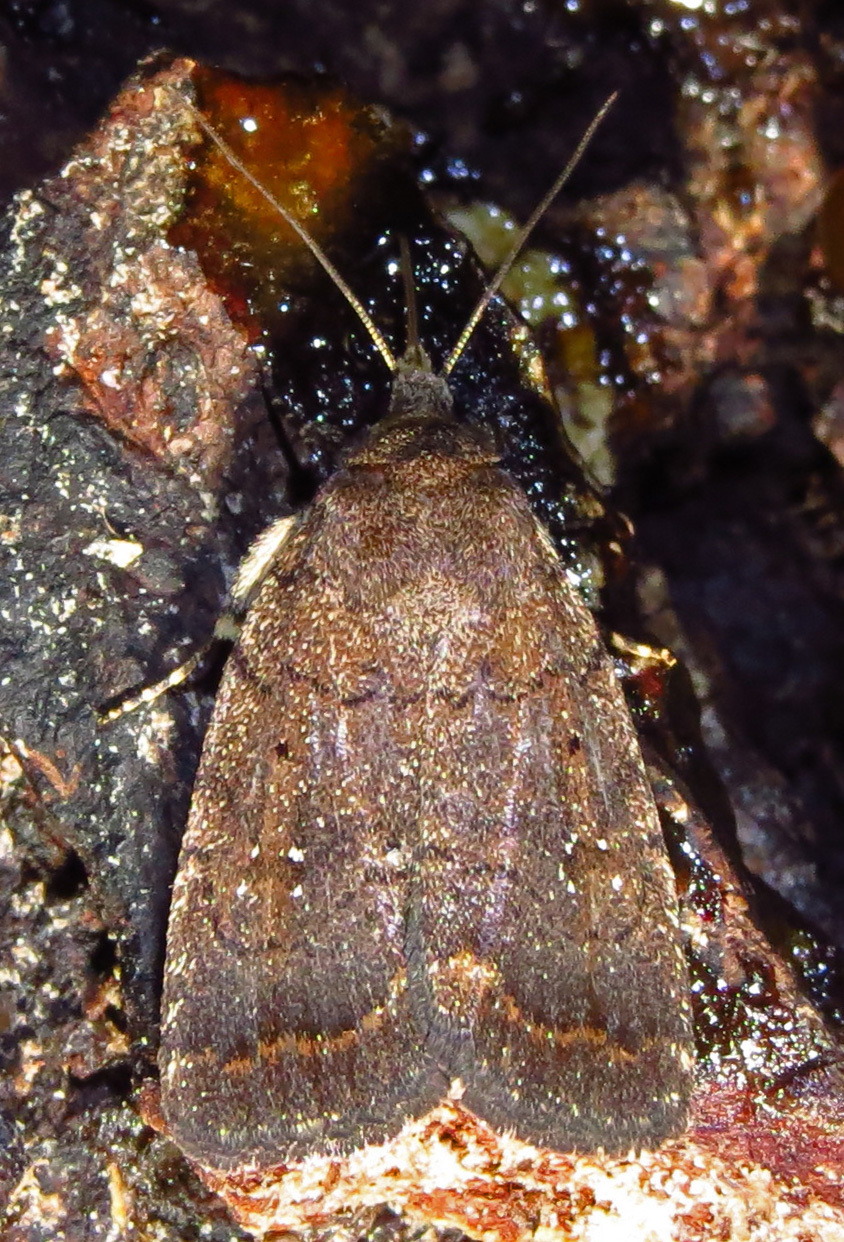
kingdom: Animalia
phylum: Arthropoda
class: Insecta
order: Lepidoptera
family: Noctuidae
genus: Athetis
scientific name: Athetis tarda
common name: Slowpoke moth
